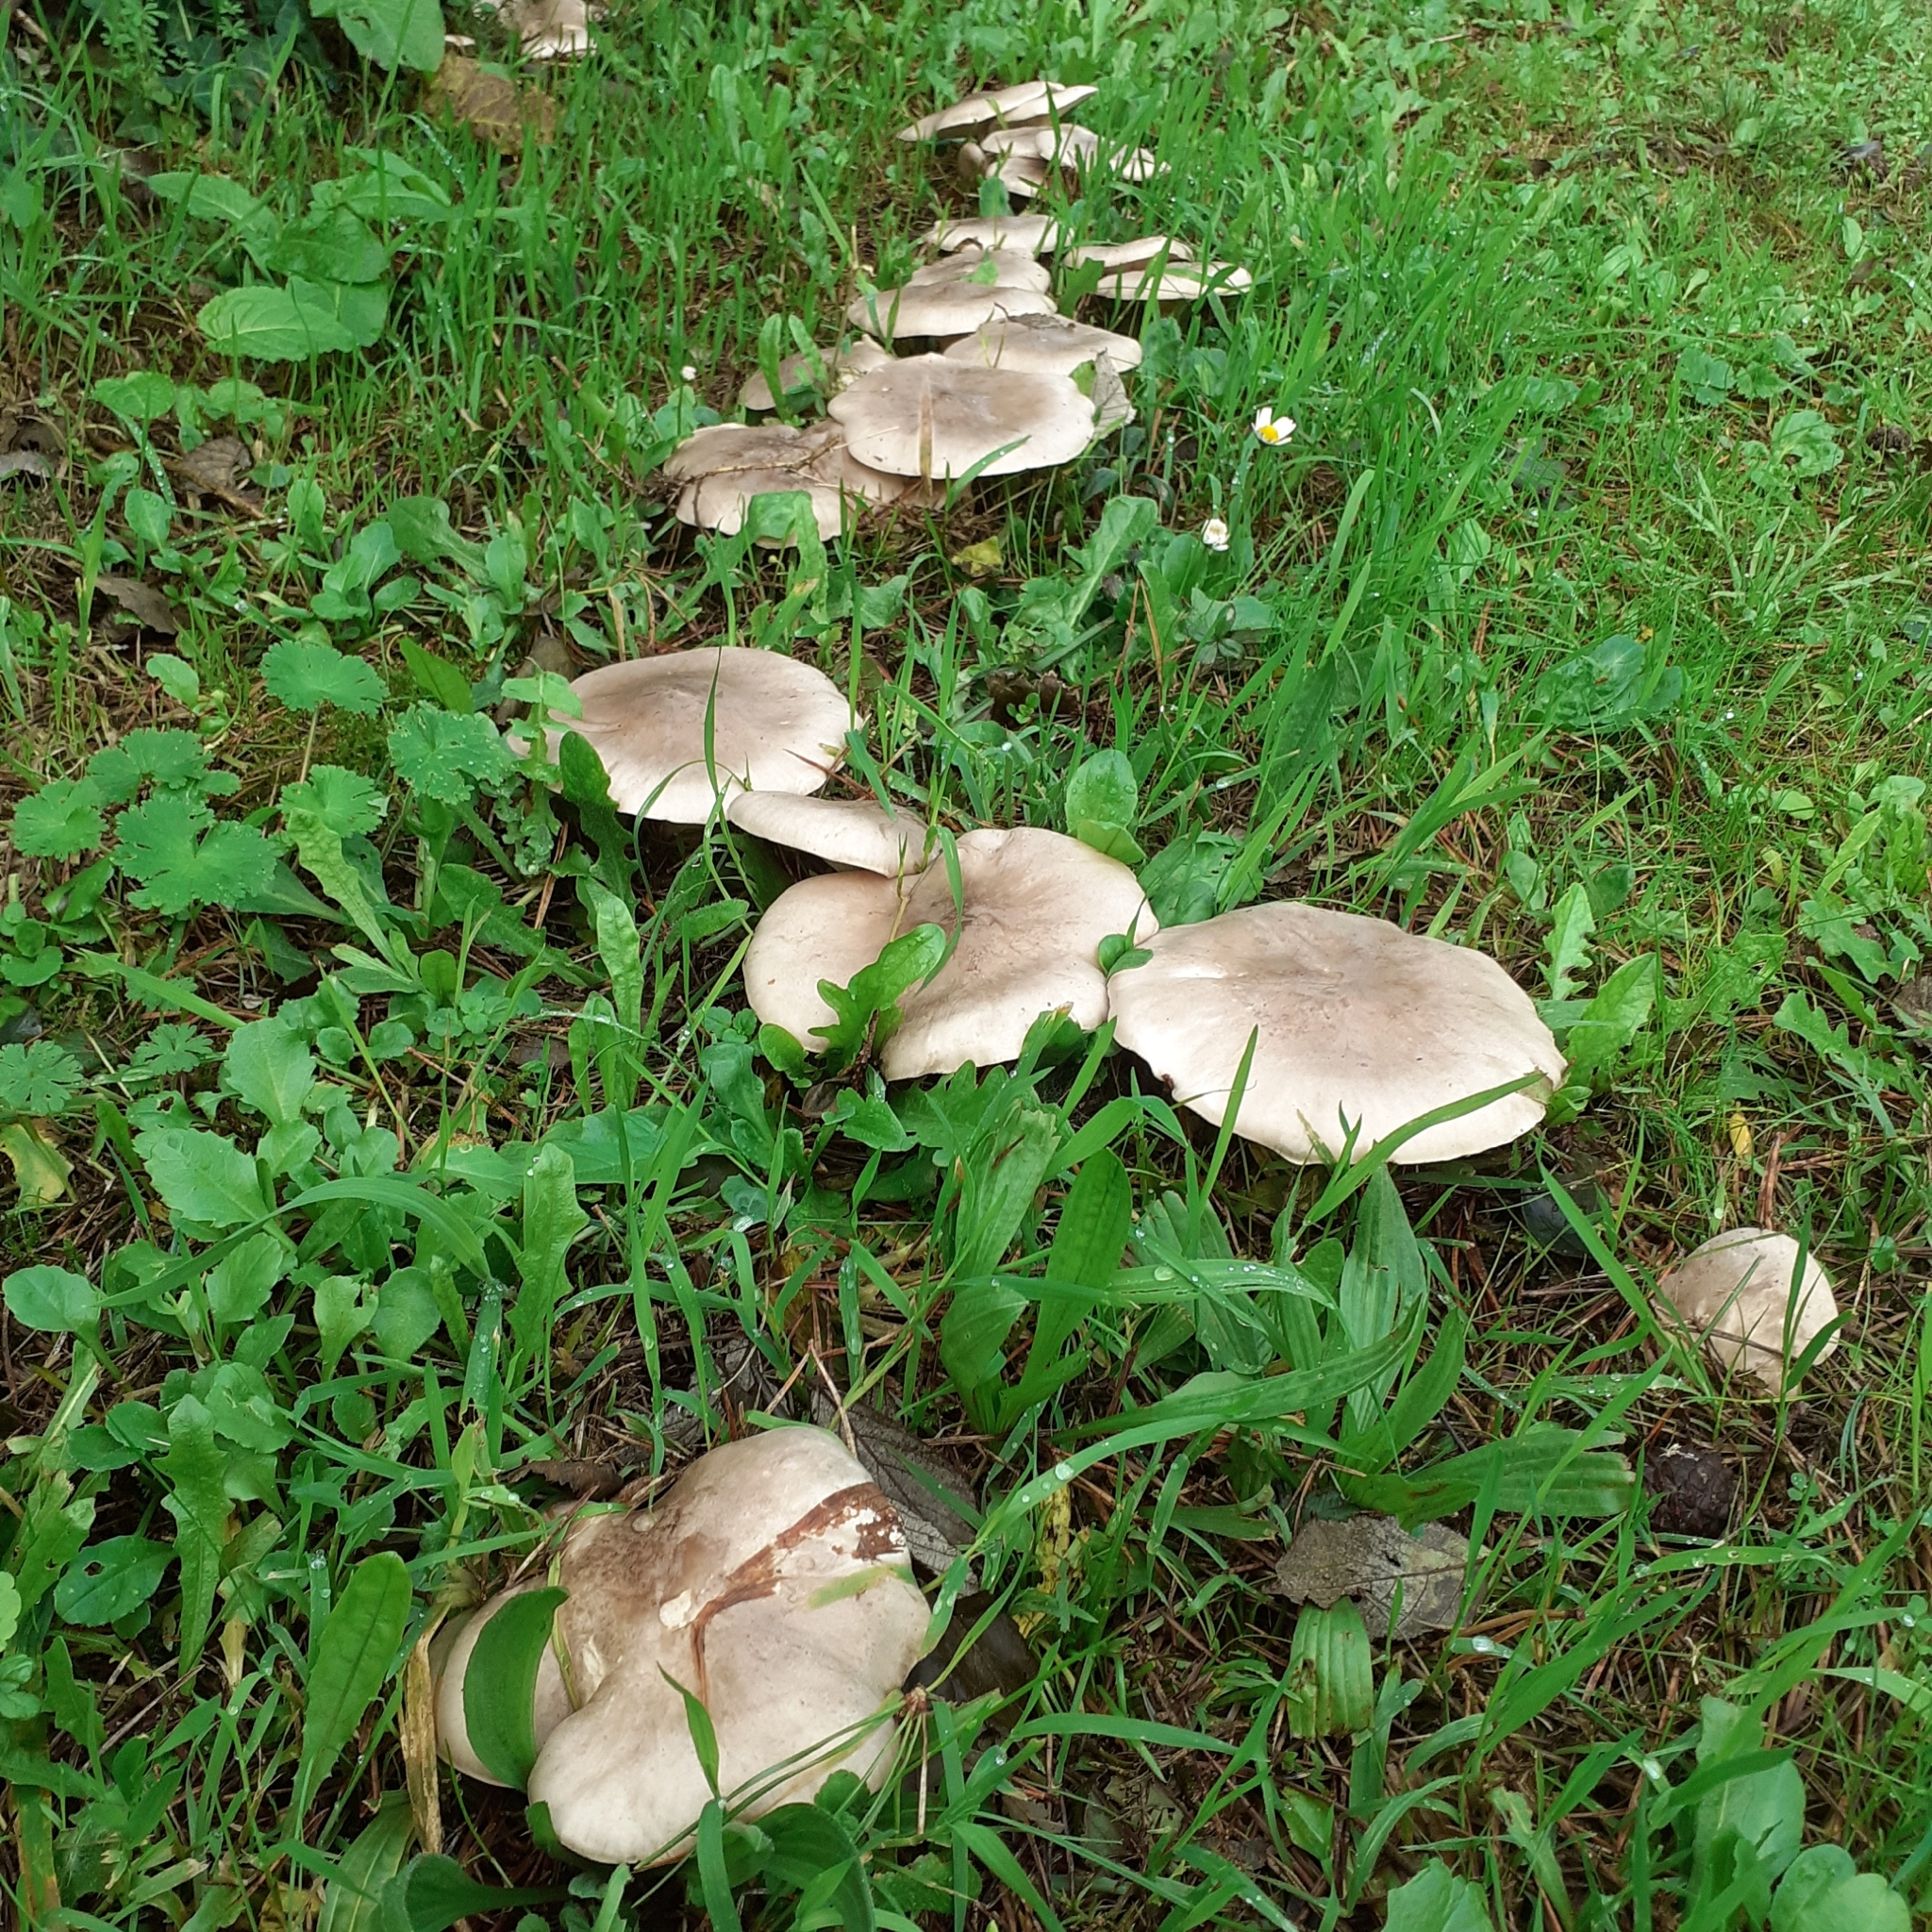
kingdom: Fungi
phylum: Basidiomycota
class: Agaricomycetes
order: Agaricales
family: Tricholomataceae
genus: Clitocybe
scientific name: Clitocybe nebularis
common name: Clouded agaric
